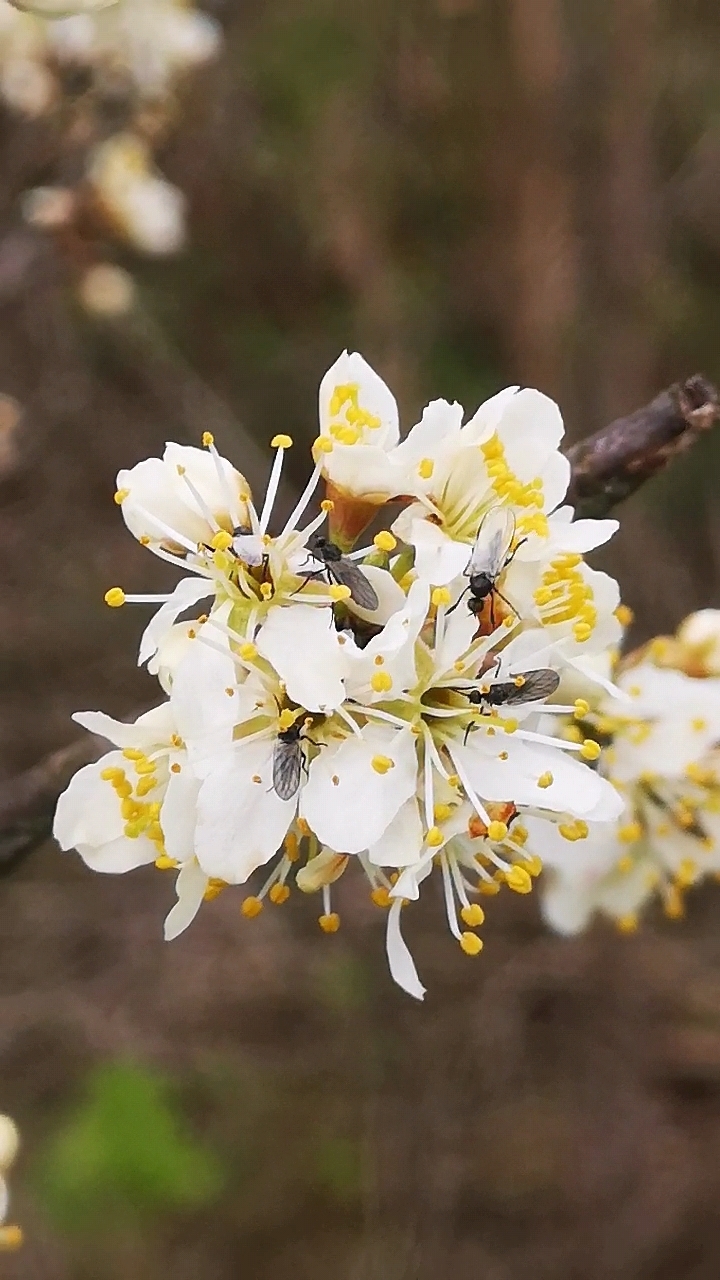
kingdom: Plantae
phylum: Tracheophyta
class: Magnoliopsida
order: Rosales
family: Rosaceae
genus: Prunus
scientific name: Prunus spinosa
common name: Blackthorn
